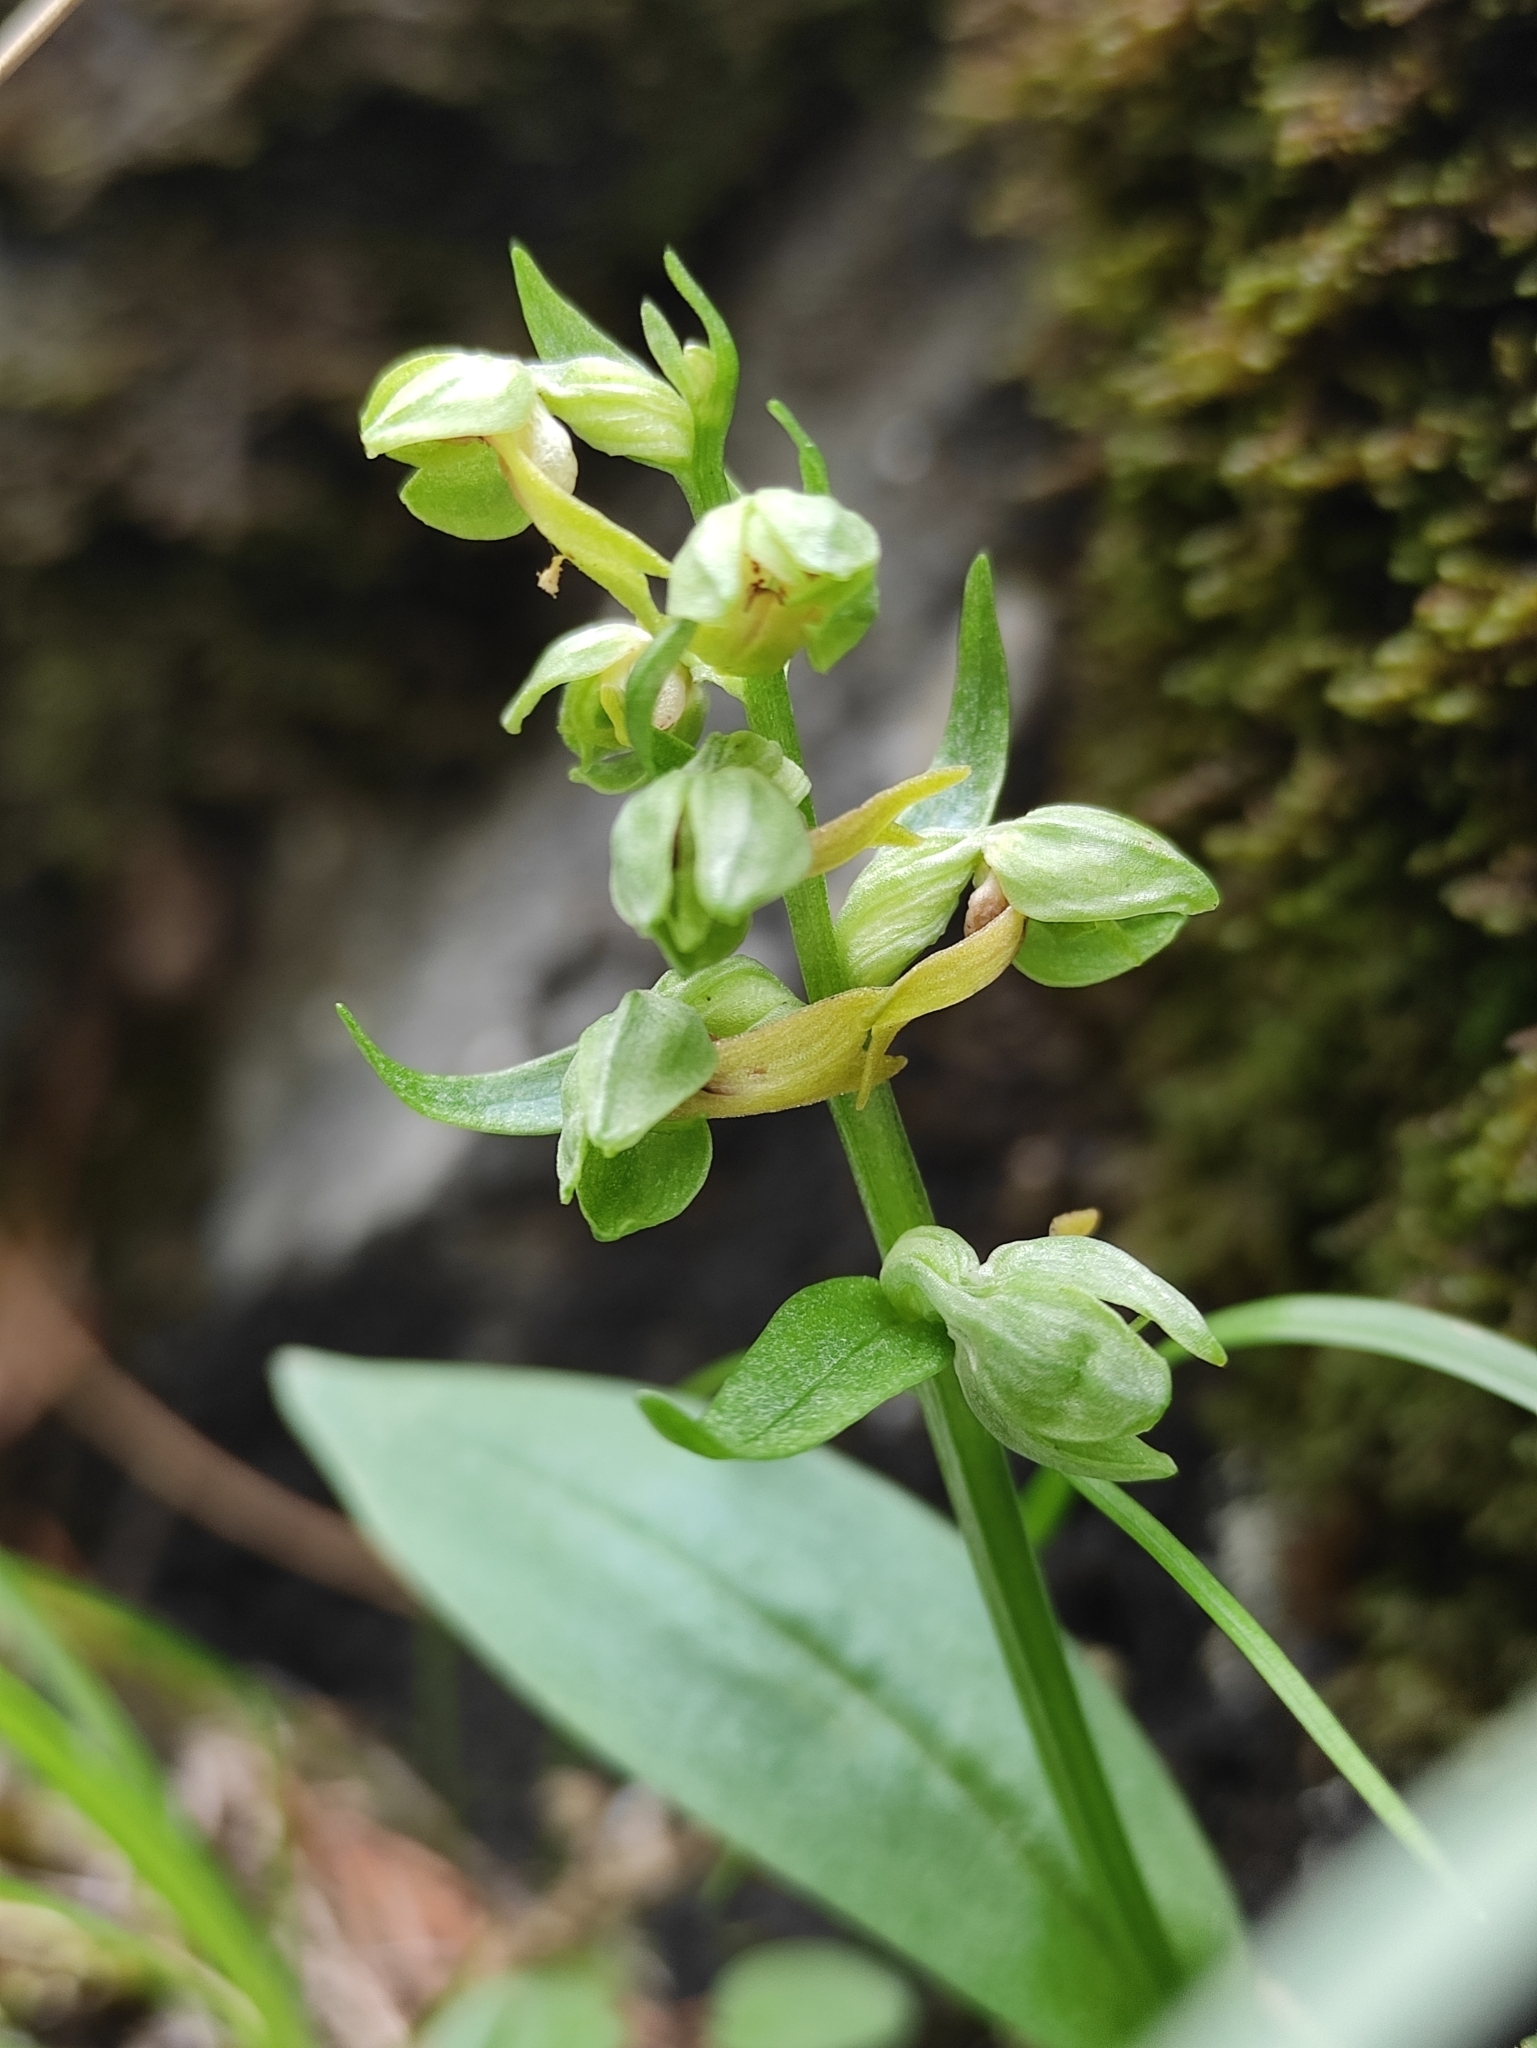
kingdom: Plantae
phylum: Tracheophyta
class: Liliopsida
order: Asparagales
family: Orchidaceae
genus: Dactylorhiza
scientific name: Dactylorhiza viridis
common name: Longbract frog orchid
